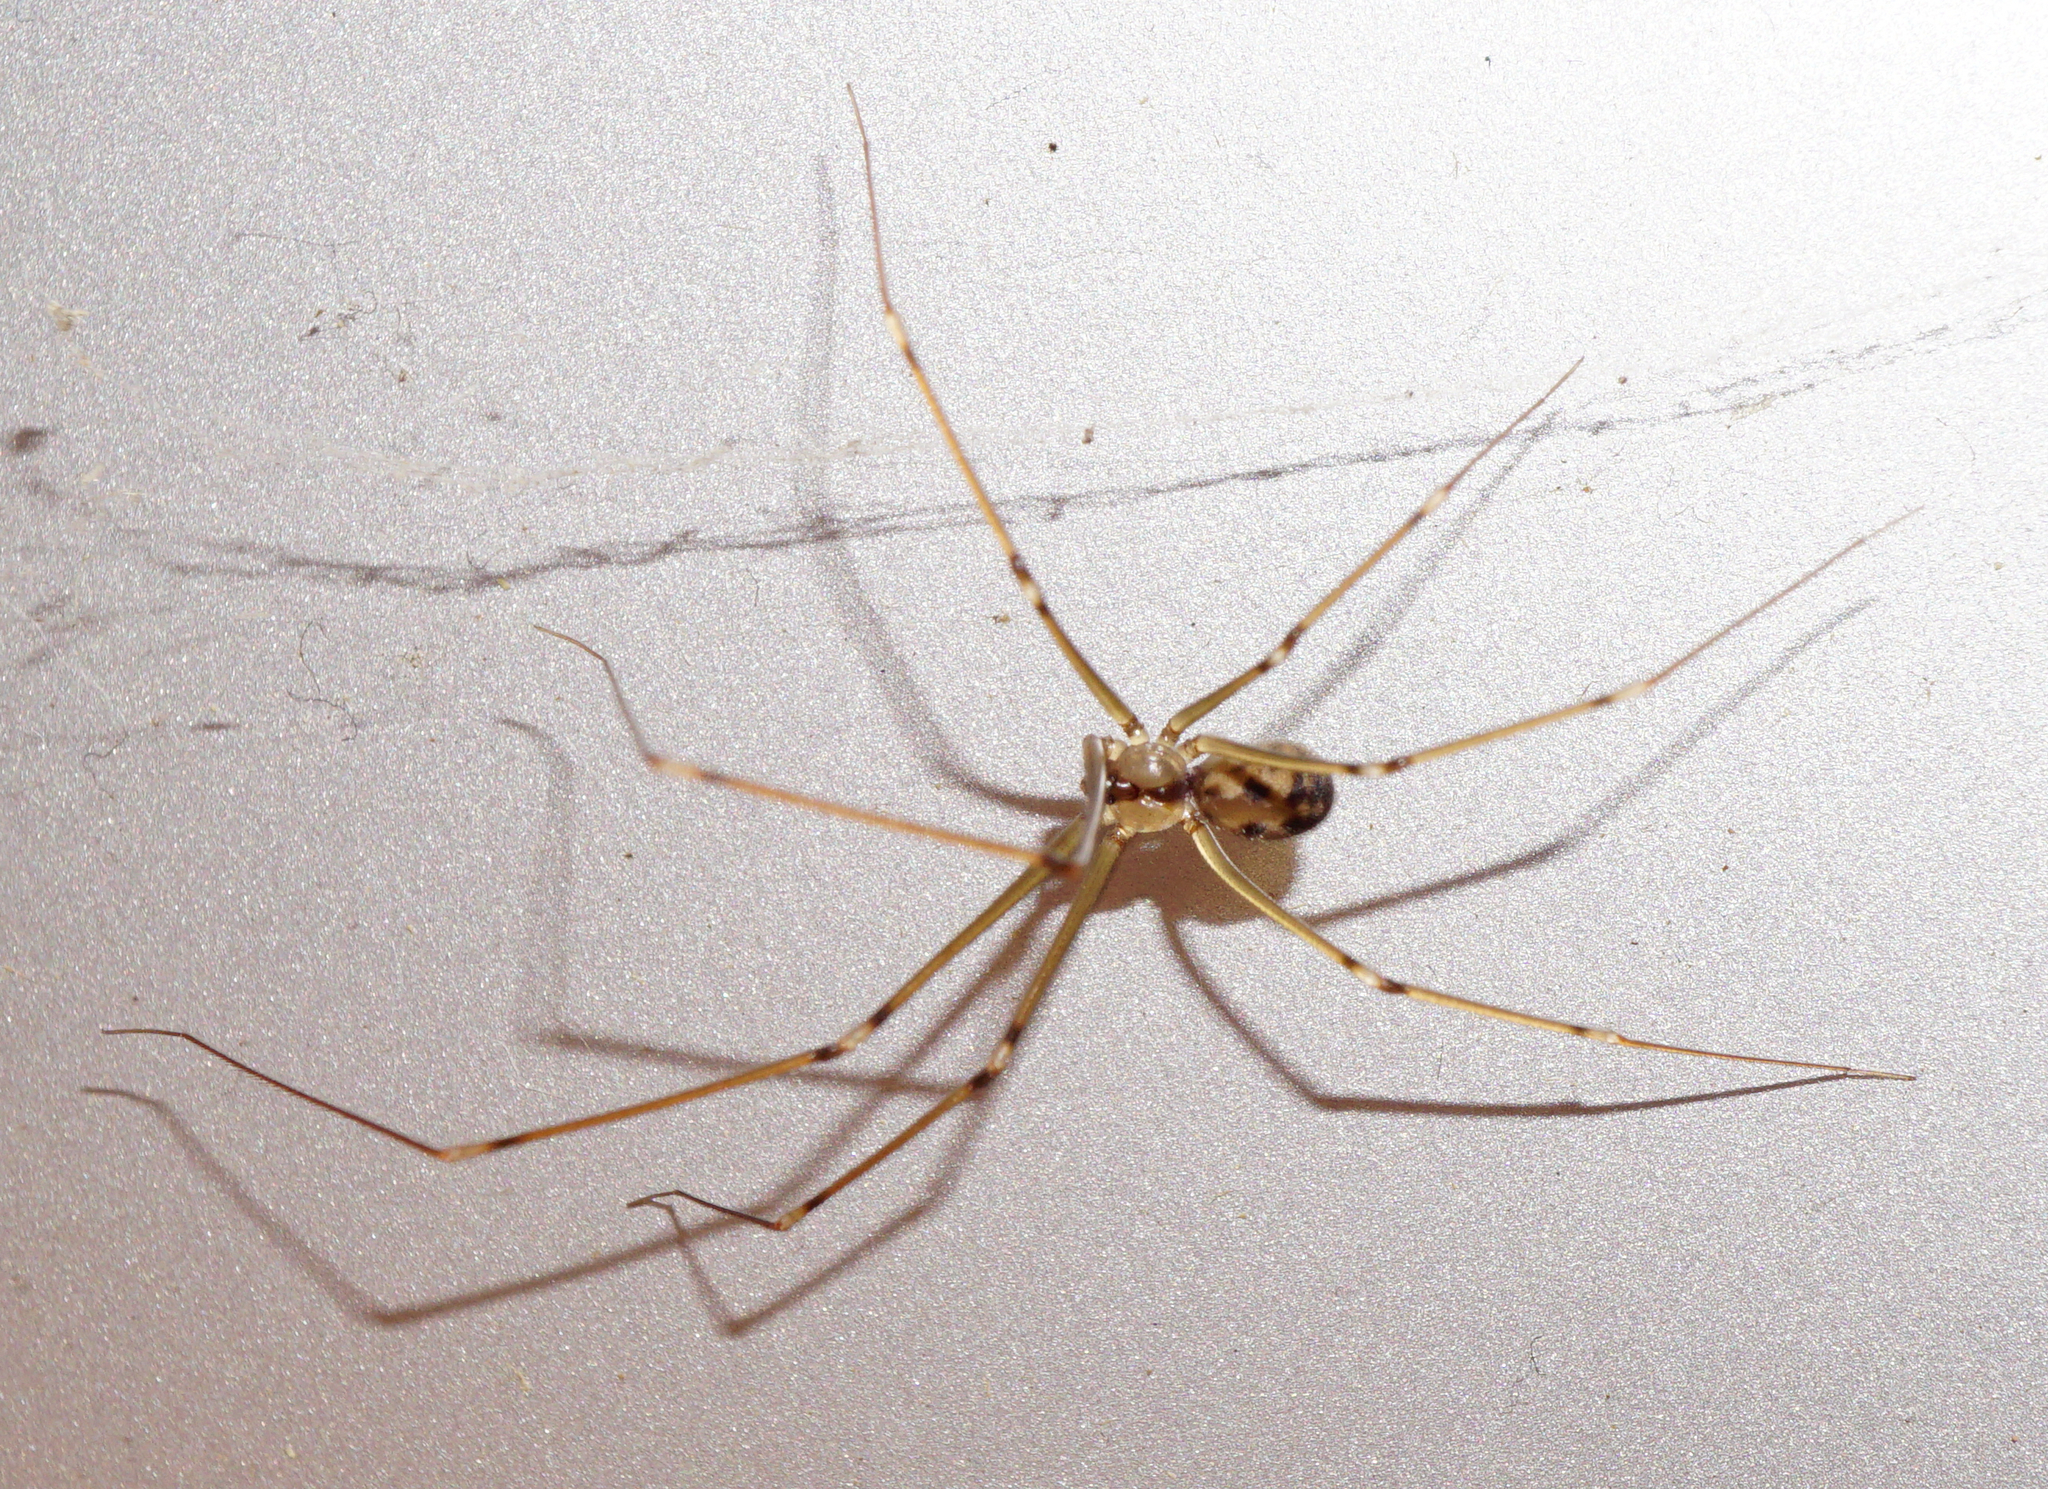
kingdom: Animalia
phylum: Arthropoda
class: Arachnida
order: Araneae
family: Pholcidae
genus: Hoplopholcus
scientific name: Hoplopholcus forskali
